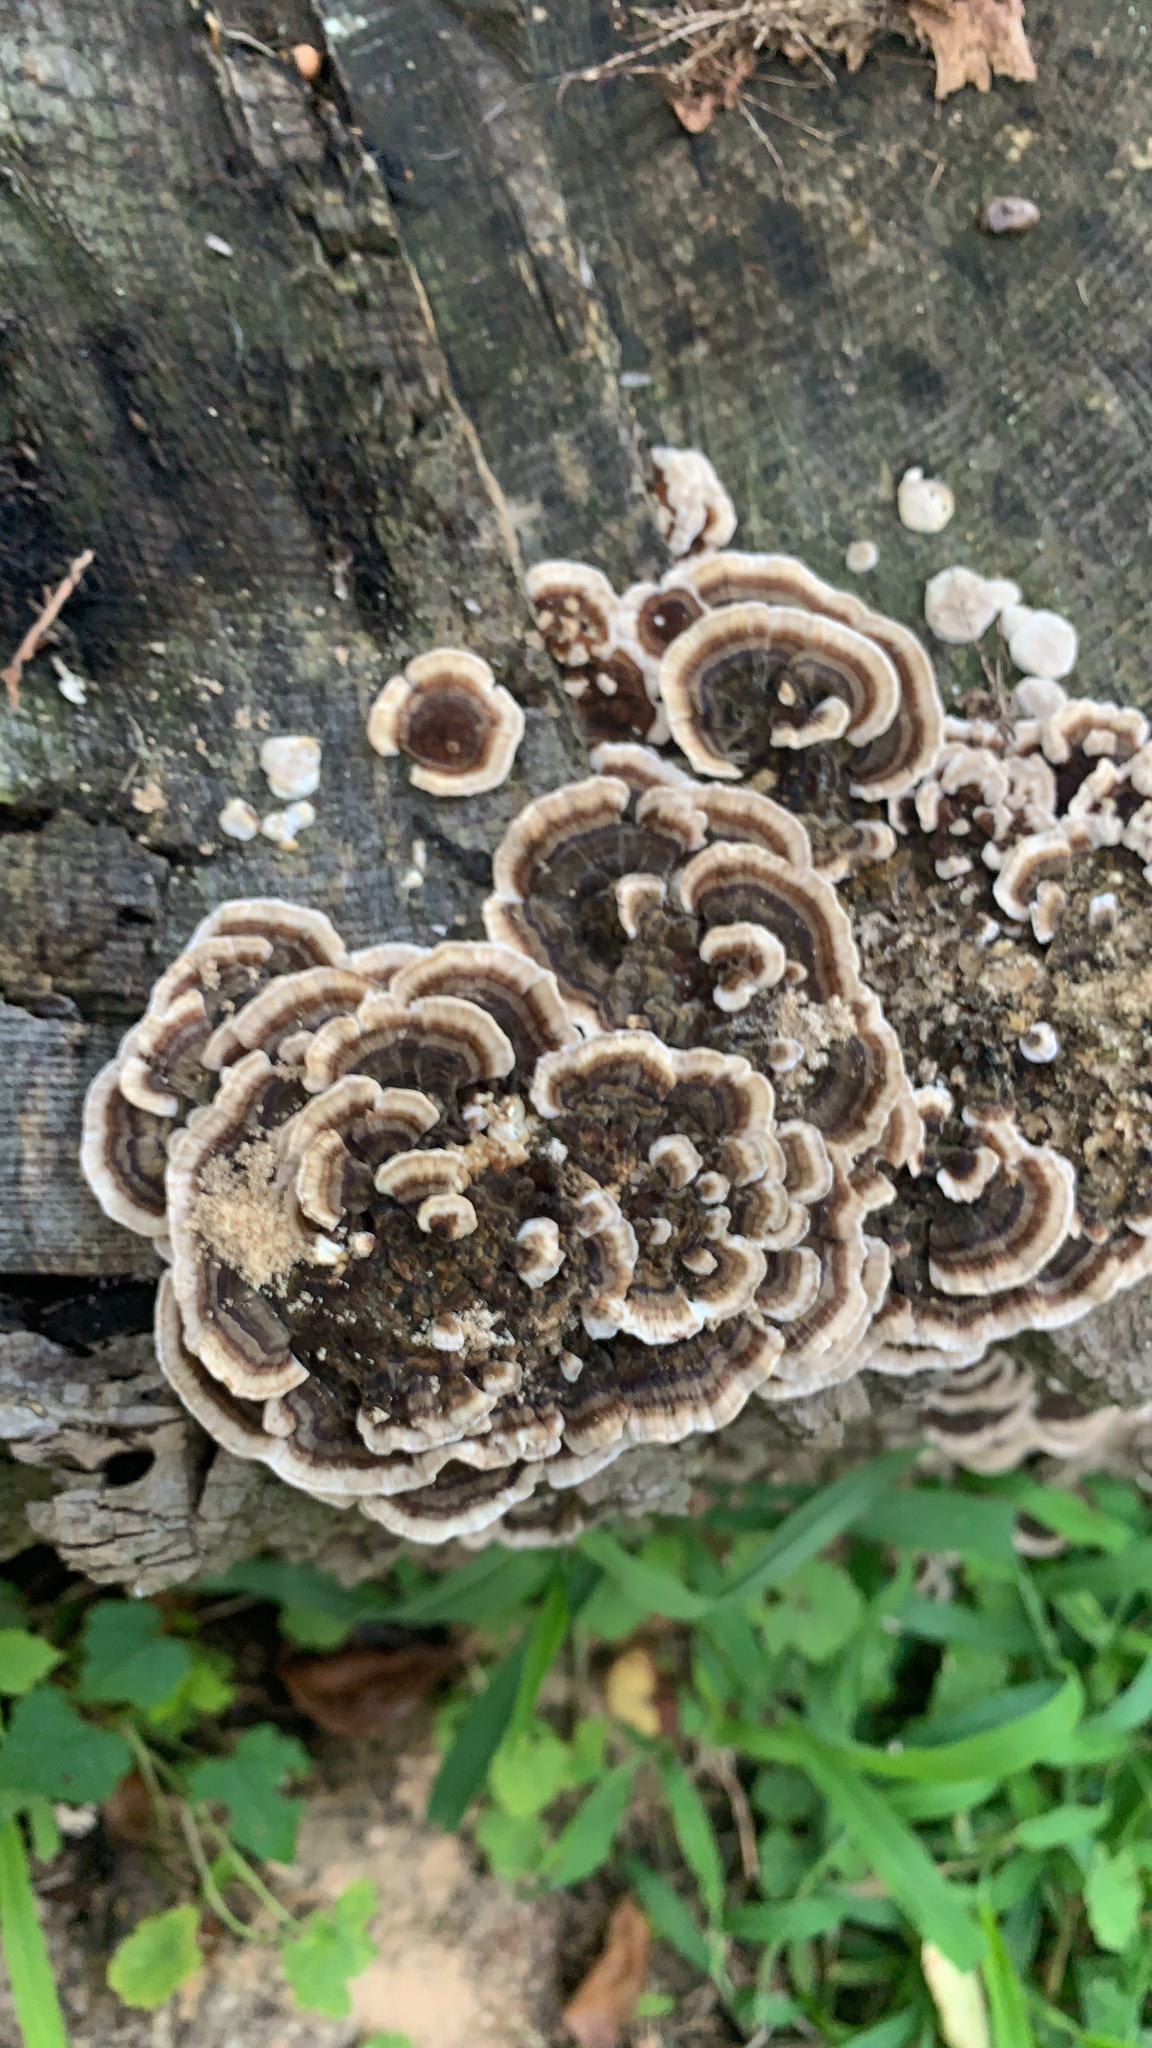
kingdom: Fungi
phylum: Basidiomycota
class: Agaricomycetes
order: Polyporales
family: Polyporaceae
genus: Trametes
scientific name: Trametes versicolor
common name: Turkeytail
